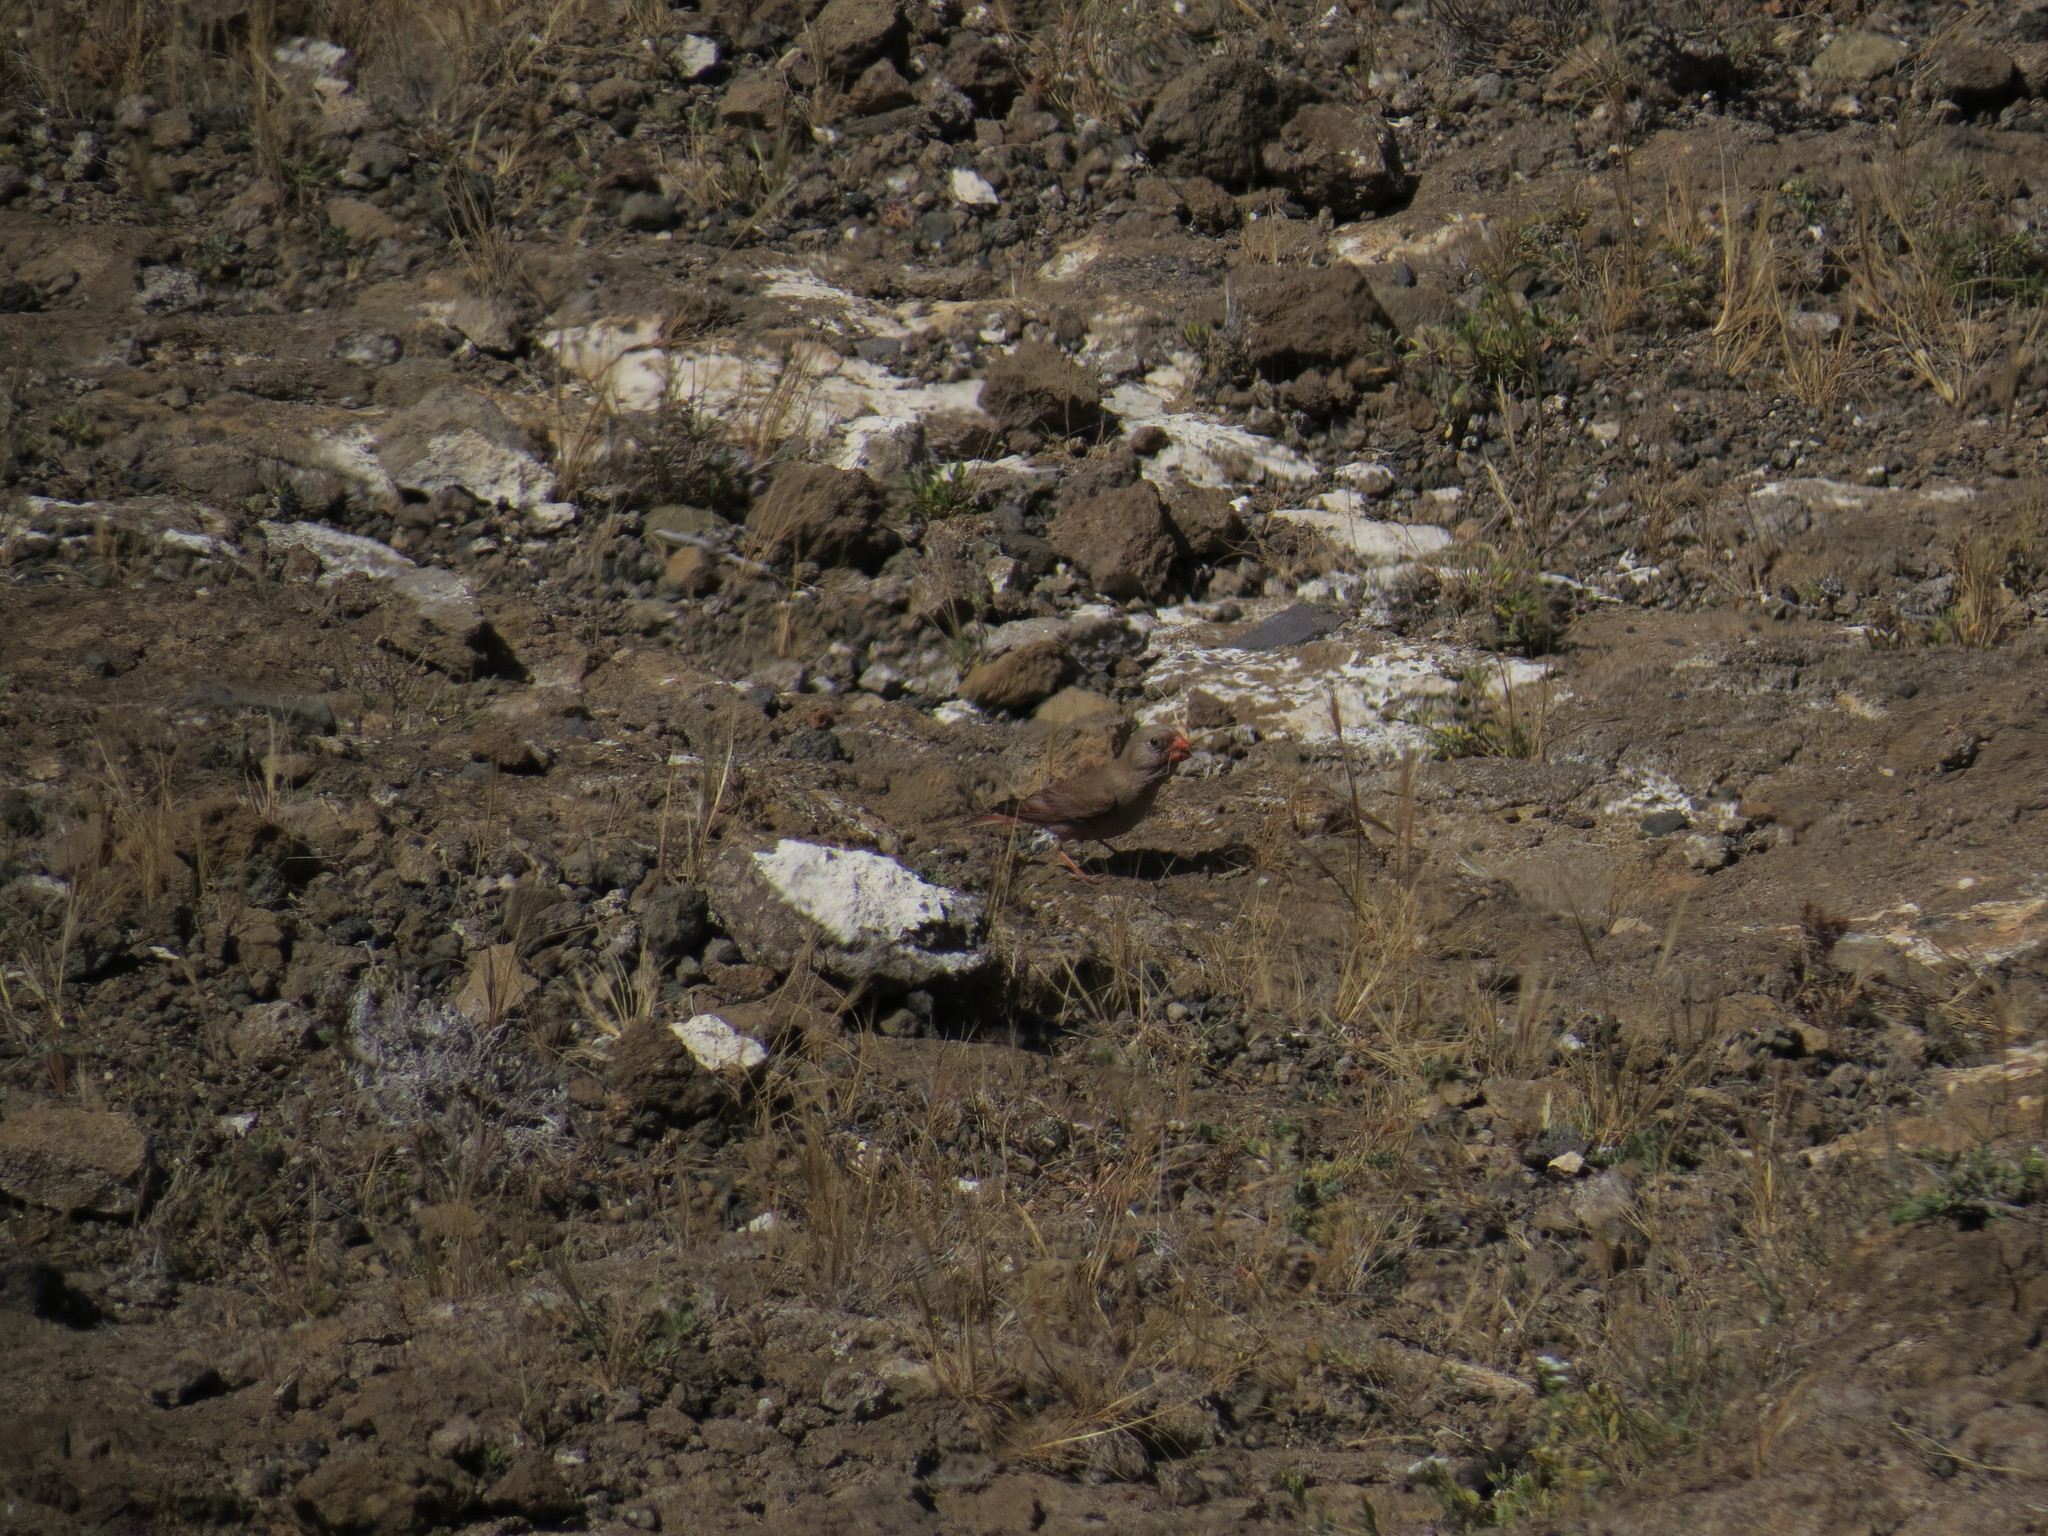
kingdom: Animalia
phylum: Chordata
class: Aves
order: Passeriformes
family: Fringillidae
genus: Bucanetes
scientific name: Bucanetes githagineus
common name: Trumpeter finch
